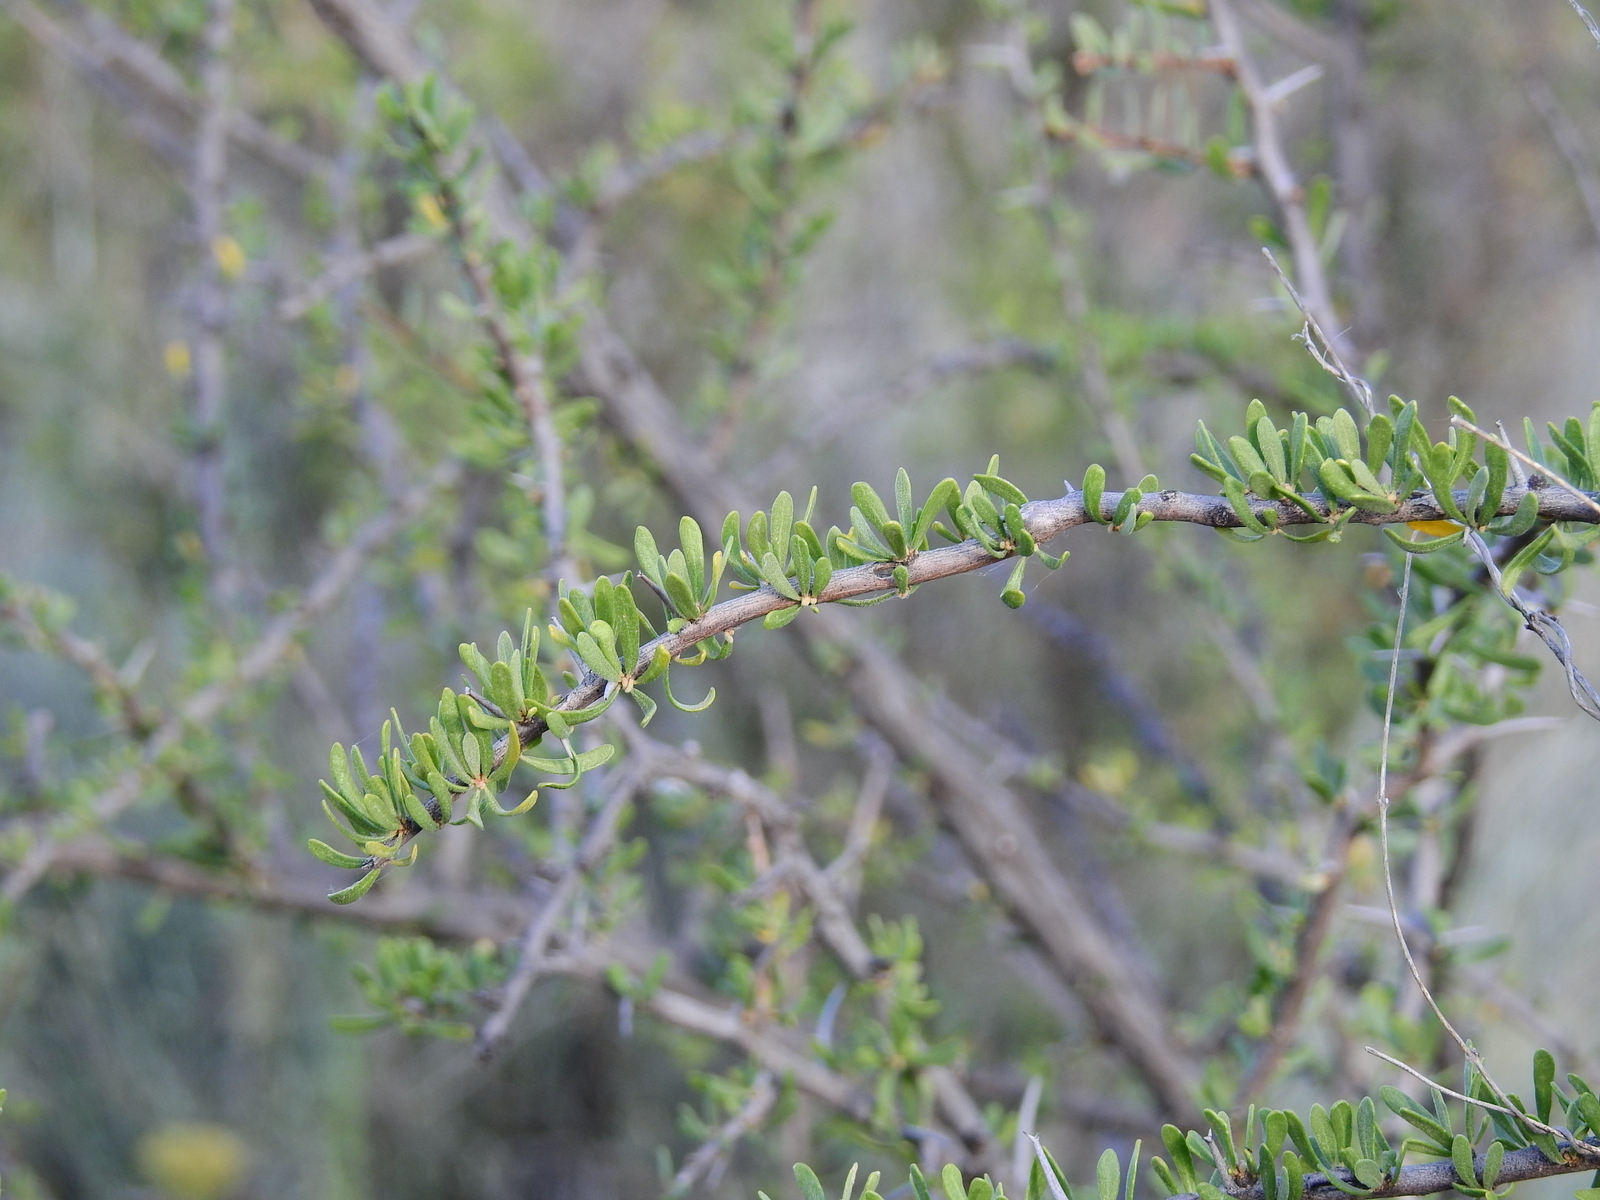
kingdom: Plantae
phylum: Tracheophyta
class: Magnoliopsida
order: Caryophyllales
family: Nyctaginaceae
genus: Bougainvillea
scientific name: Bougainvillea spinosa
